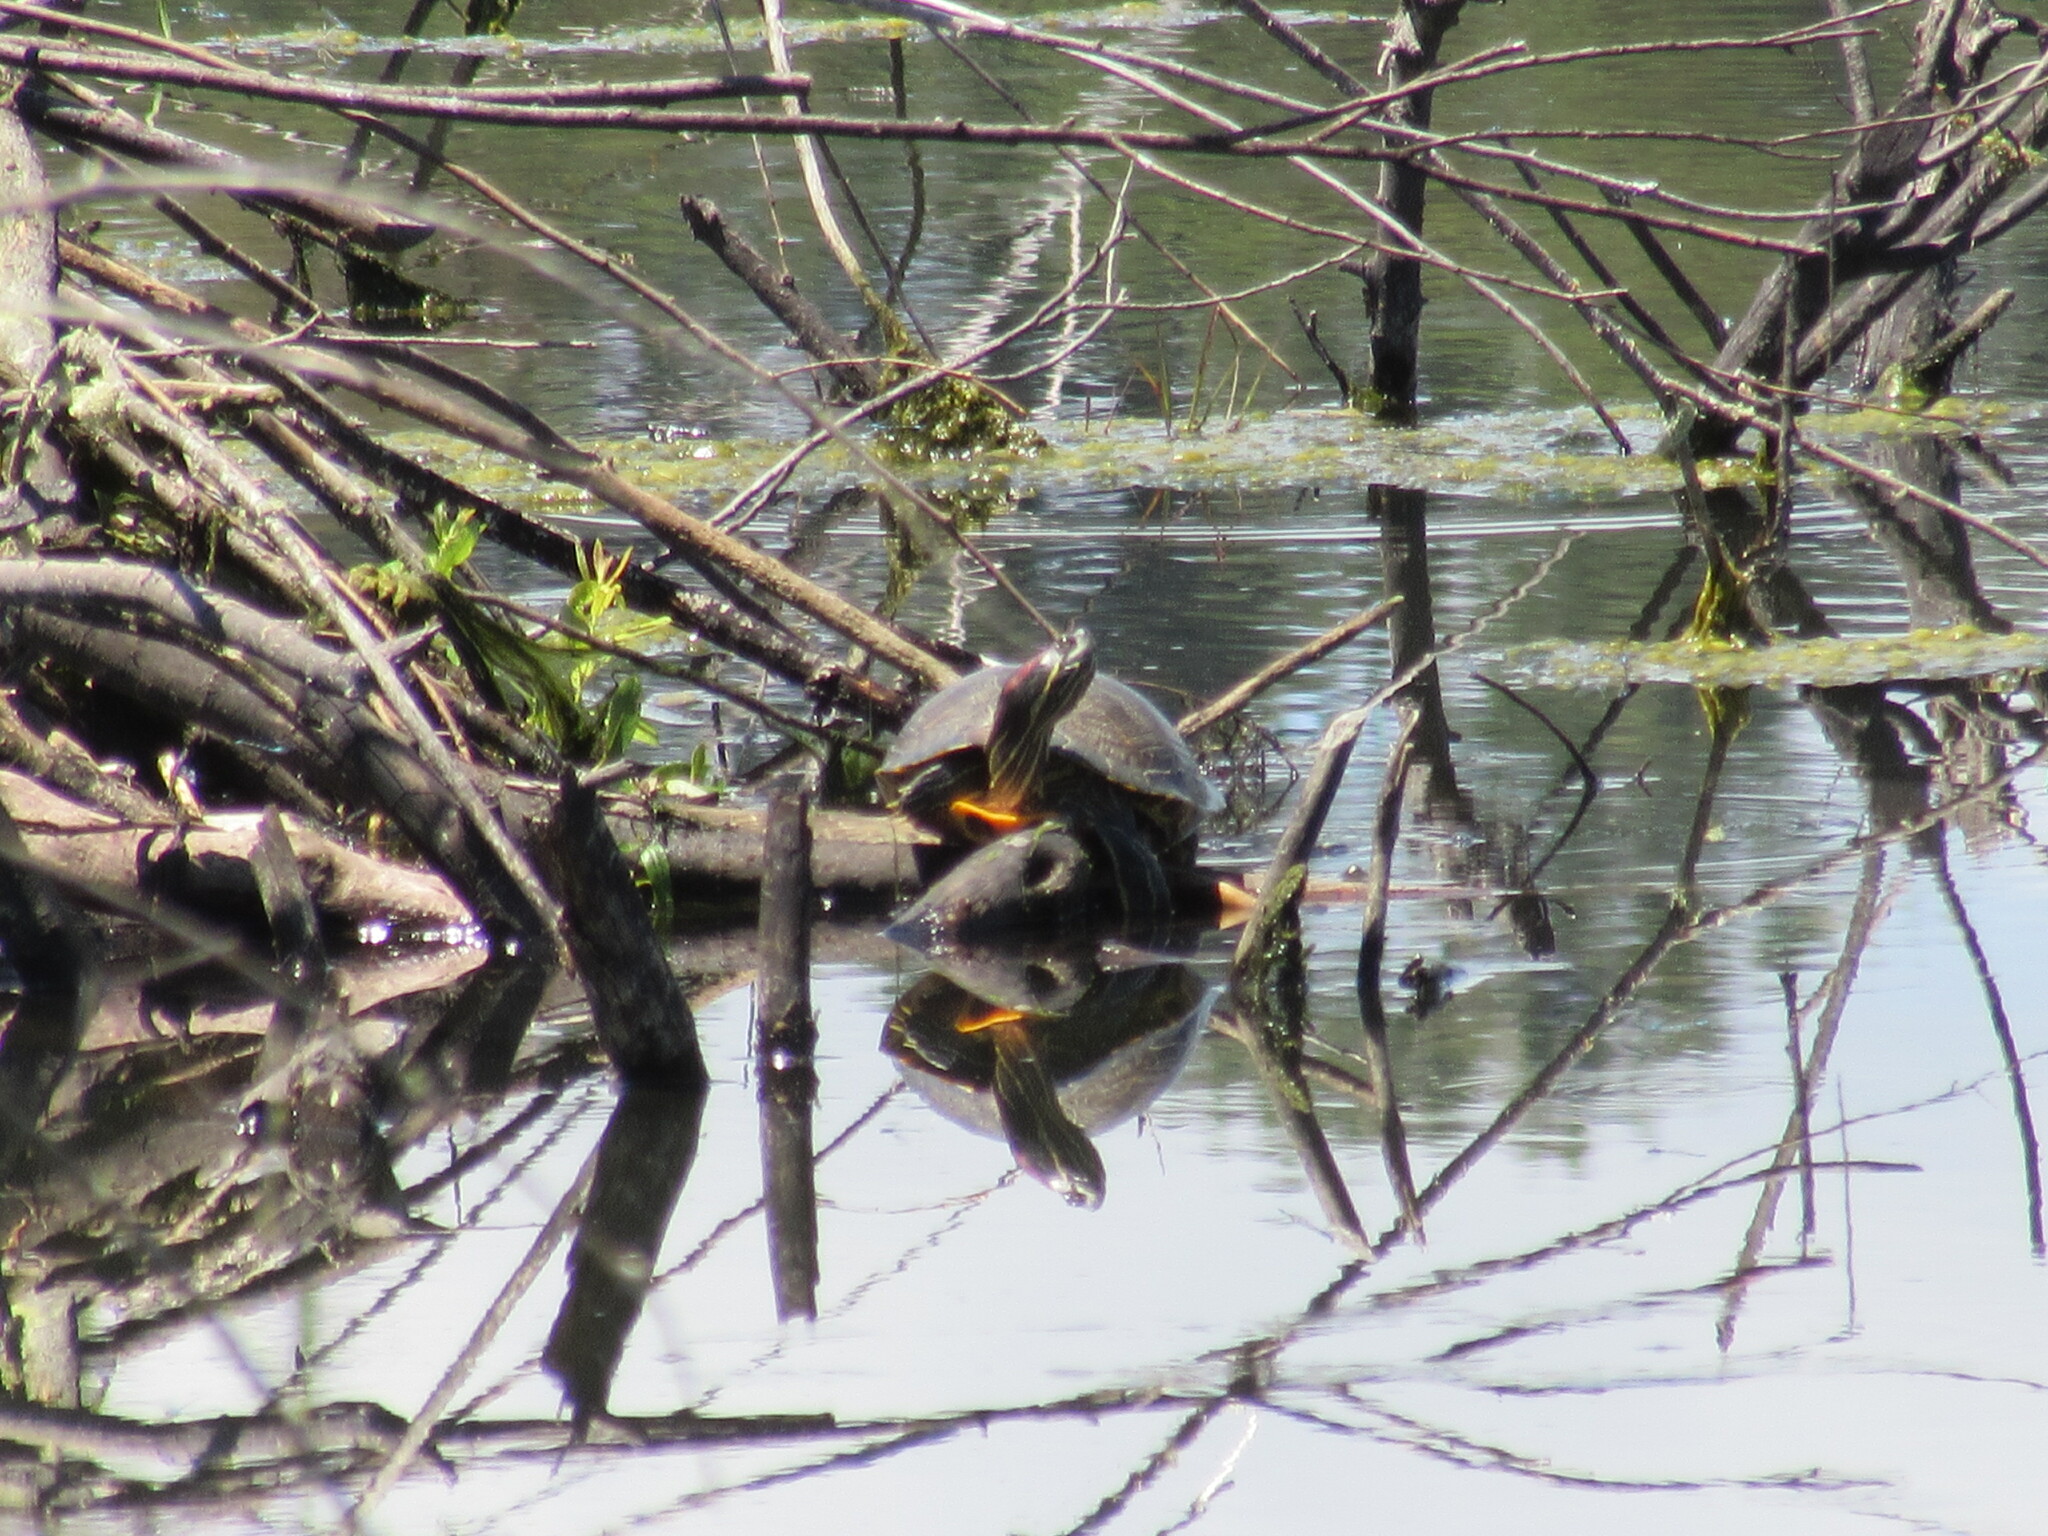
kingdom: Animalia
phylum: Chordata
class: Testudines
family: Emydidae
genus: Trachemys
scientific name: Trachemys scripta
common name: Slider
